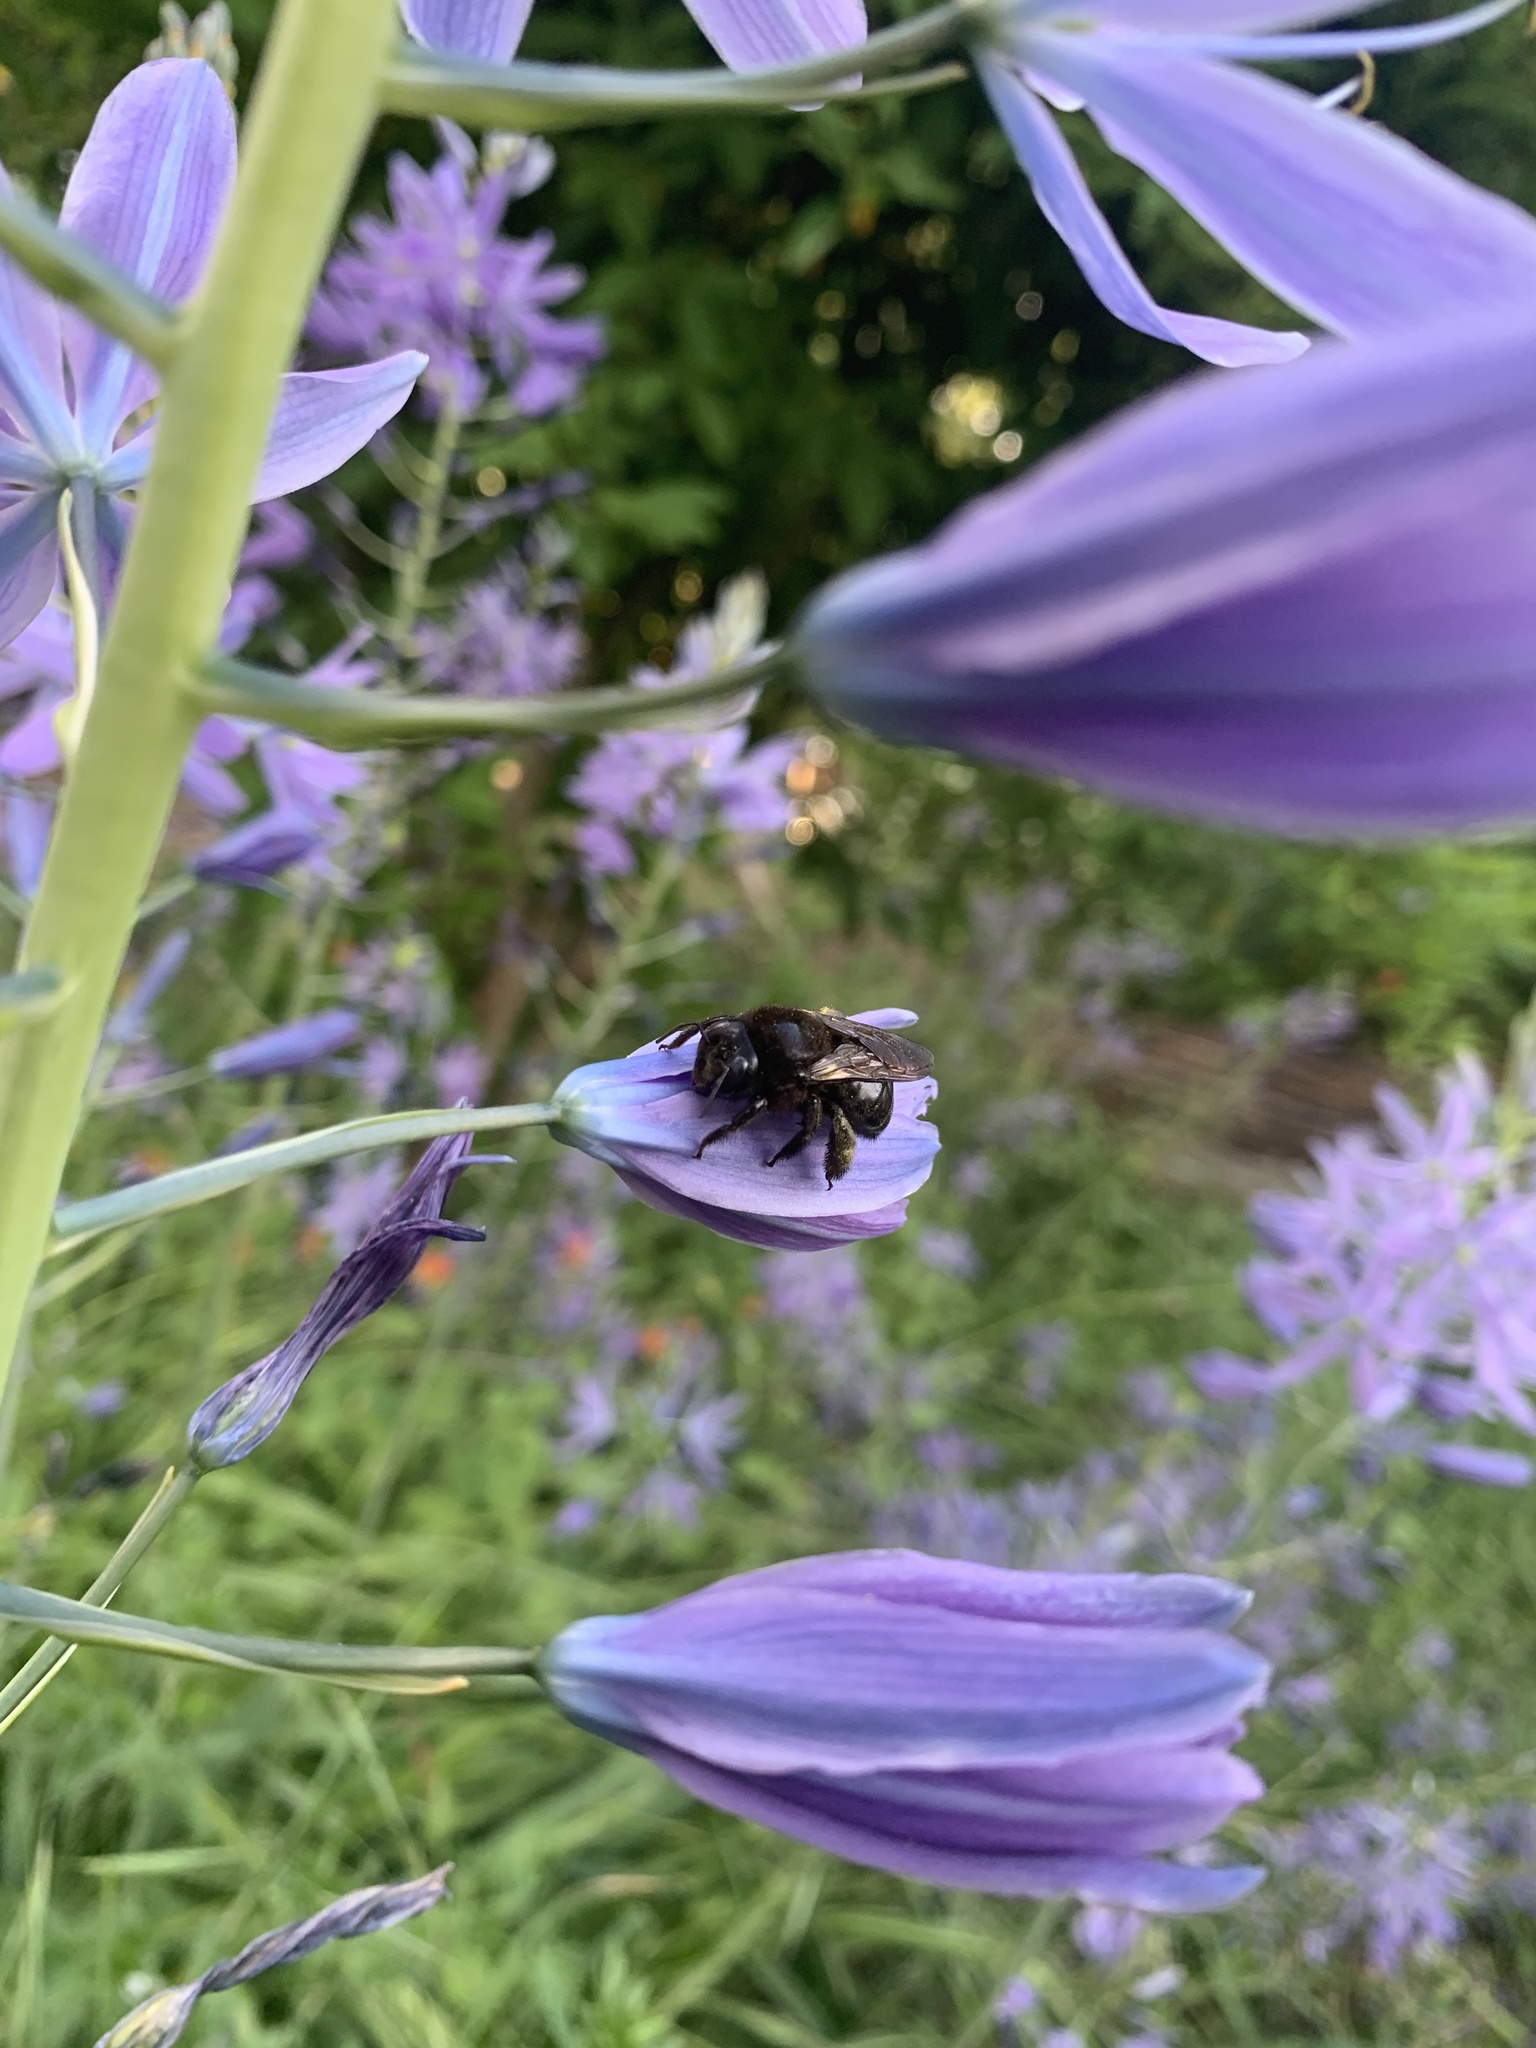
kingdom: Animalia
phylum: Arthropoda
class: Insecta
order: Hymenoptera
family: Apidae
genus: Xylocopa
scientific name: Xylocopa tabaniformis
